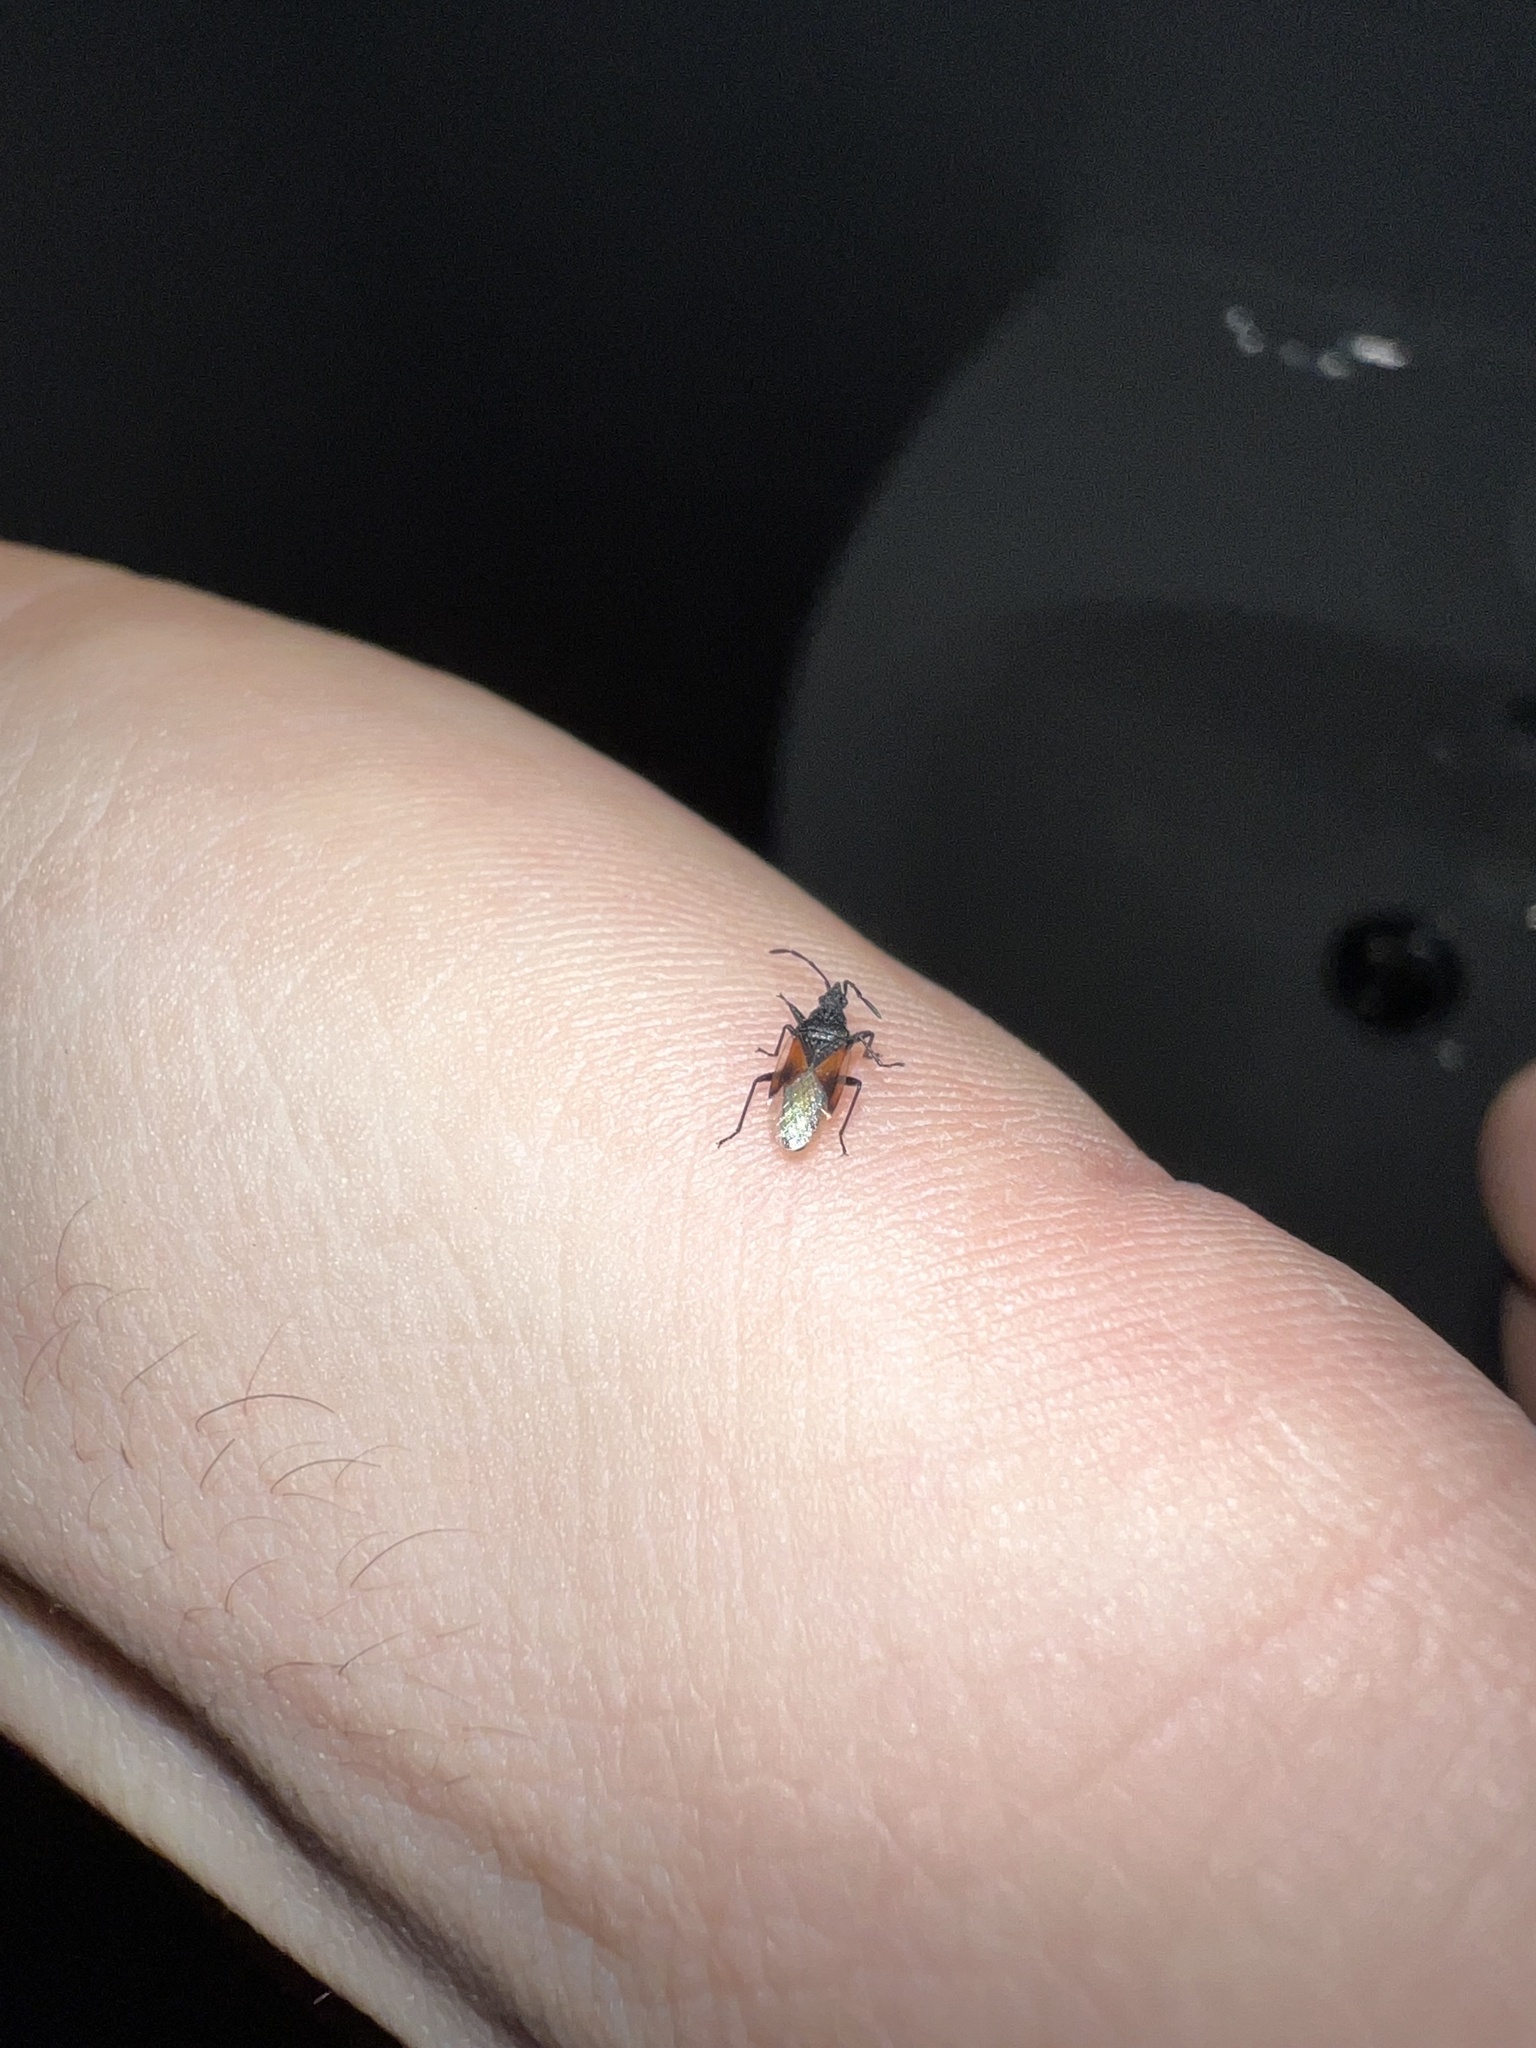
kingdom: Animalia
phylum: Arthropoda
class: Insecta
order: Hemiptera
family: Oxycarenidae
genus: Oxycarenus
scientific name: Oxycarenus lavaterae
